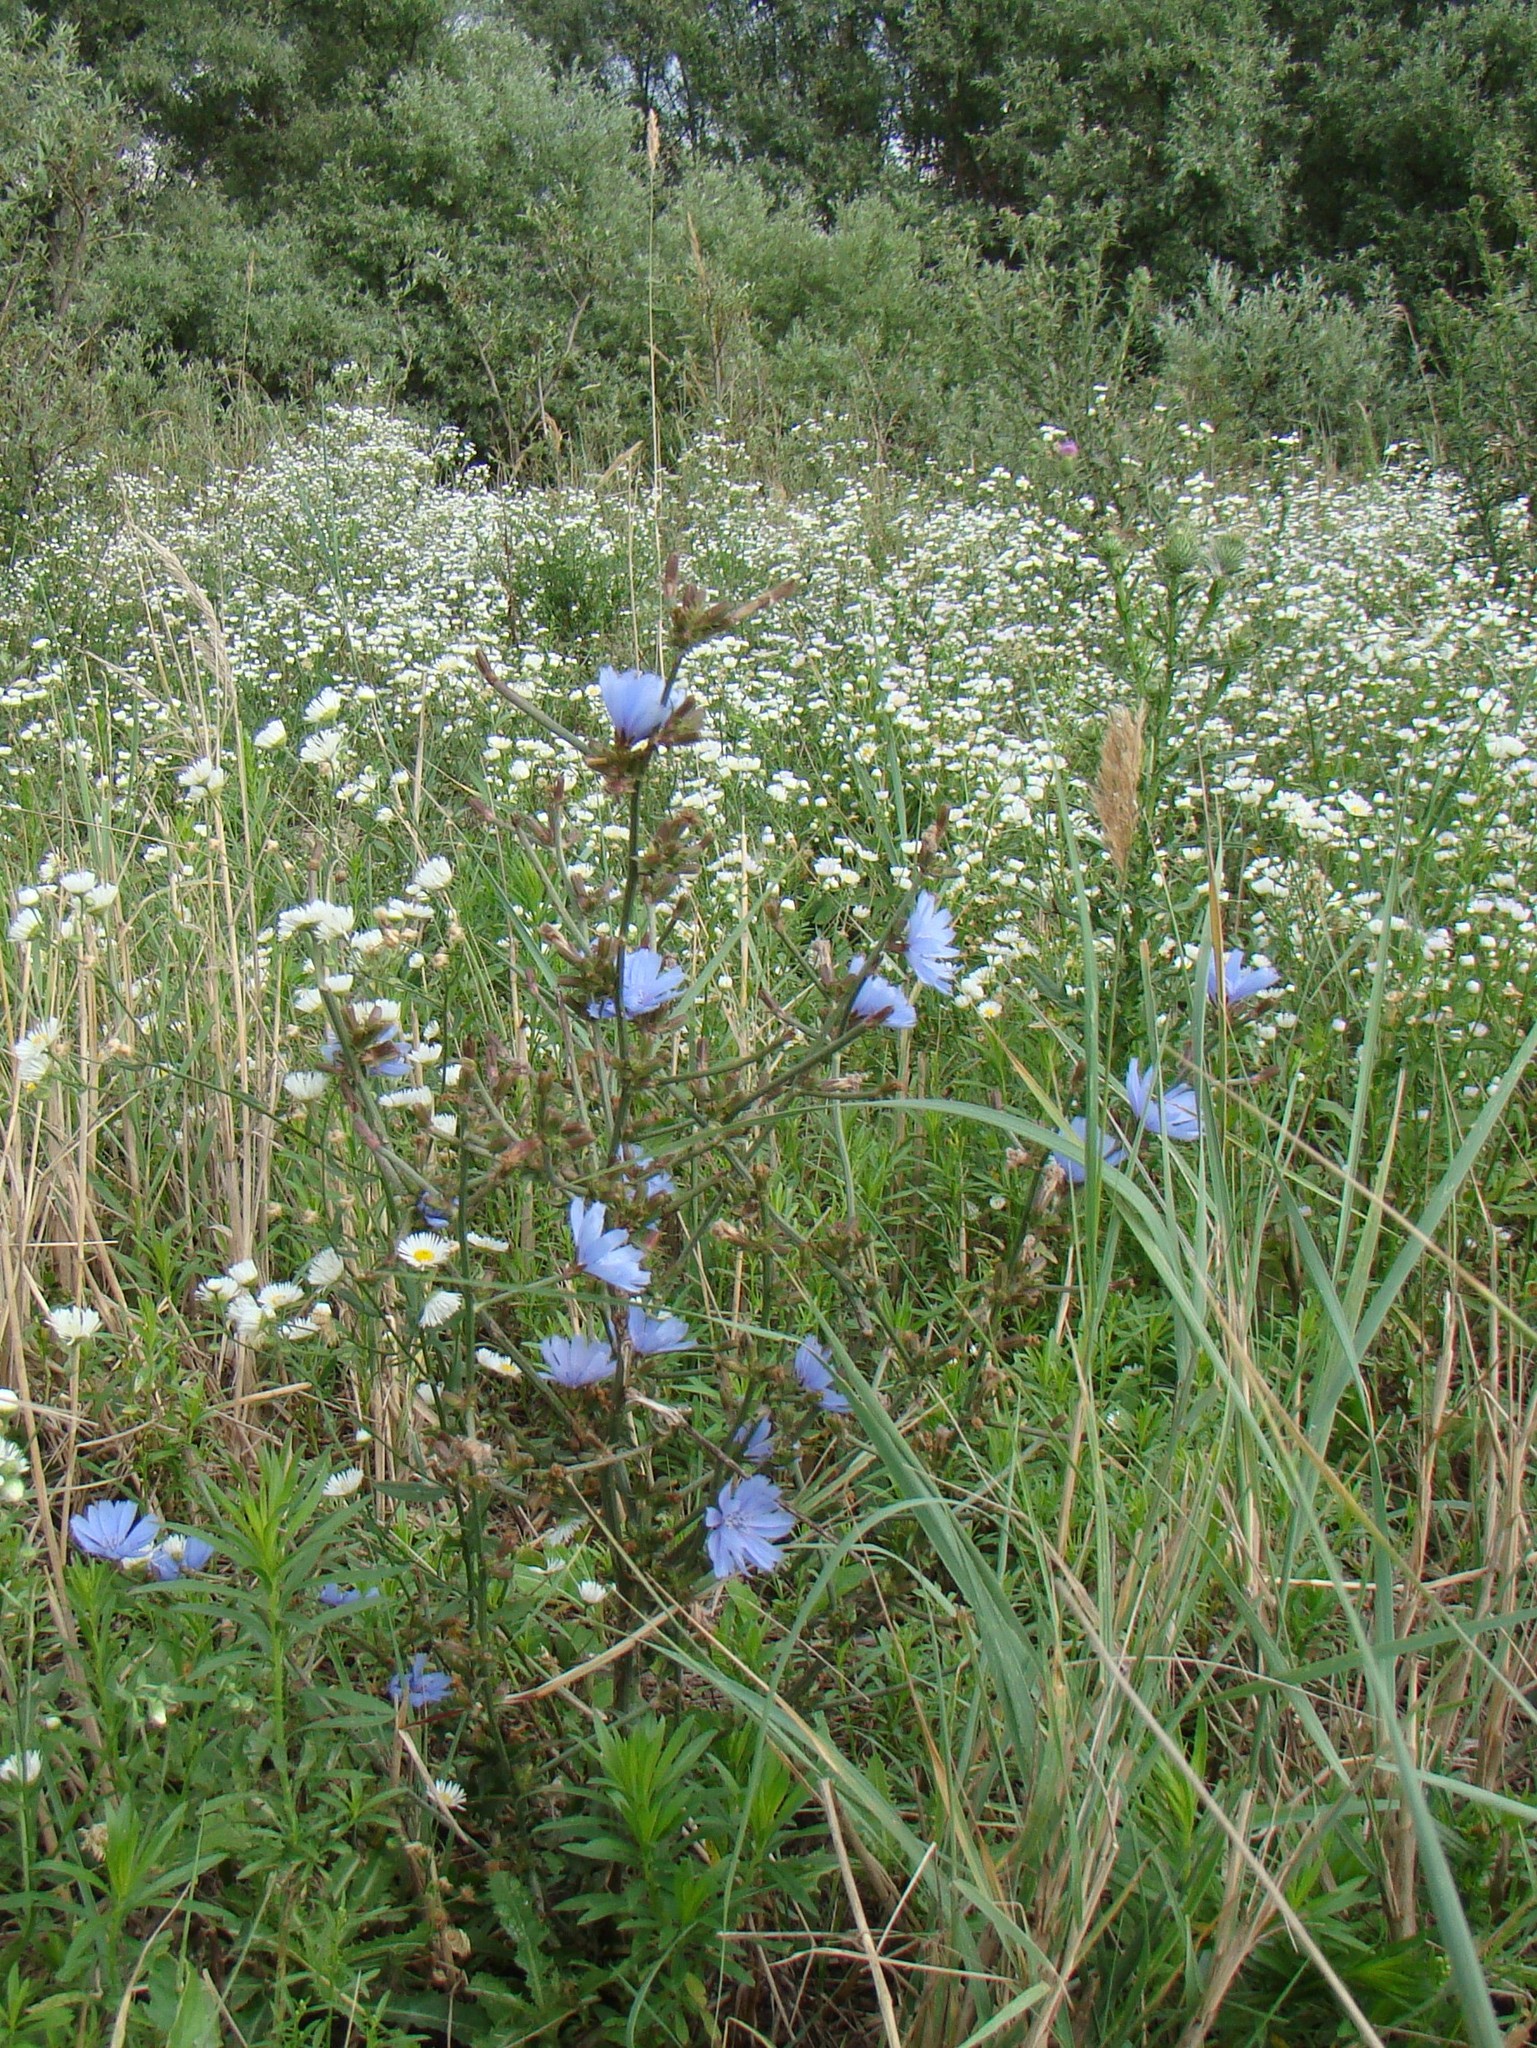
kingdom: Plantae
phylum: Tracheophyta
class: Magnoliopsida
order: Asterales
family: Asteraceae
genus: Cichorium
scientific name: Cichorium intybus
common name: Chicory
